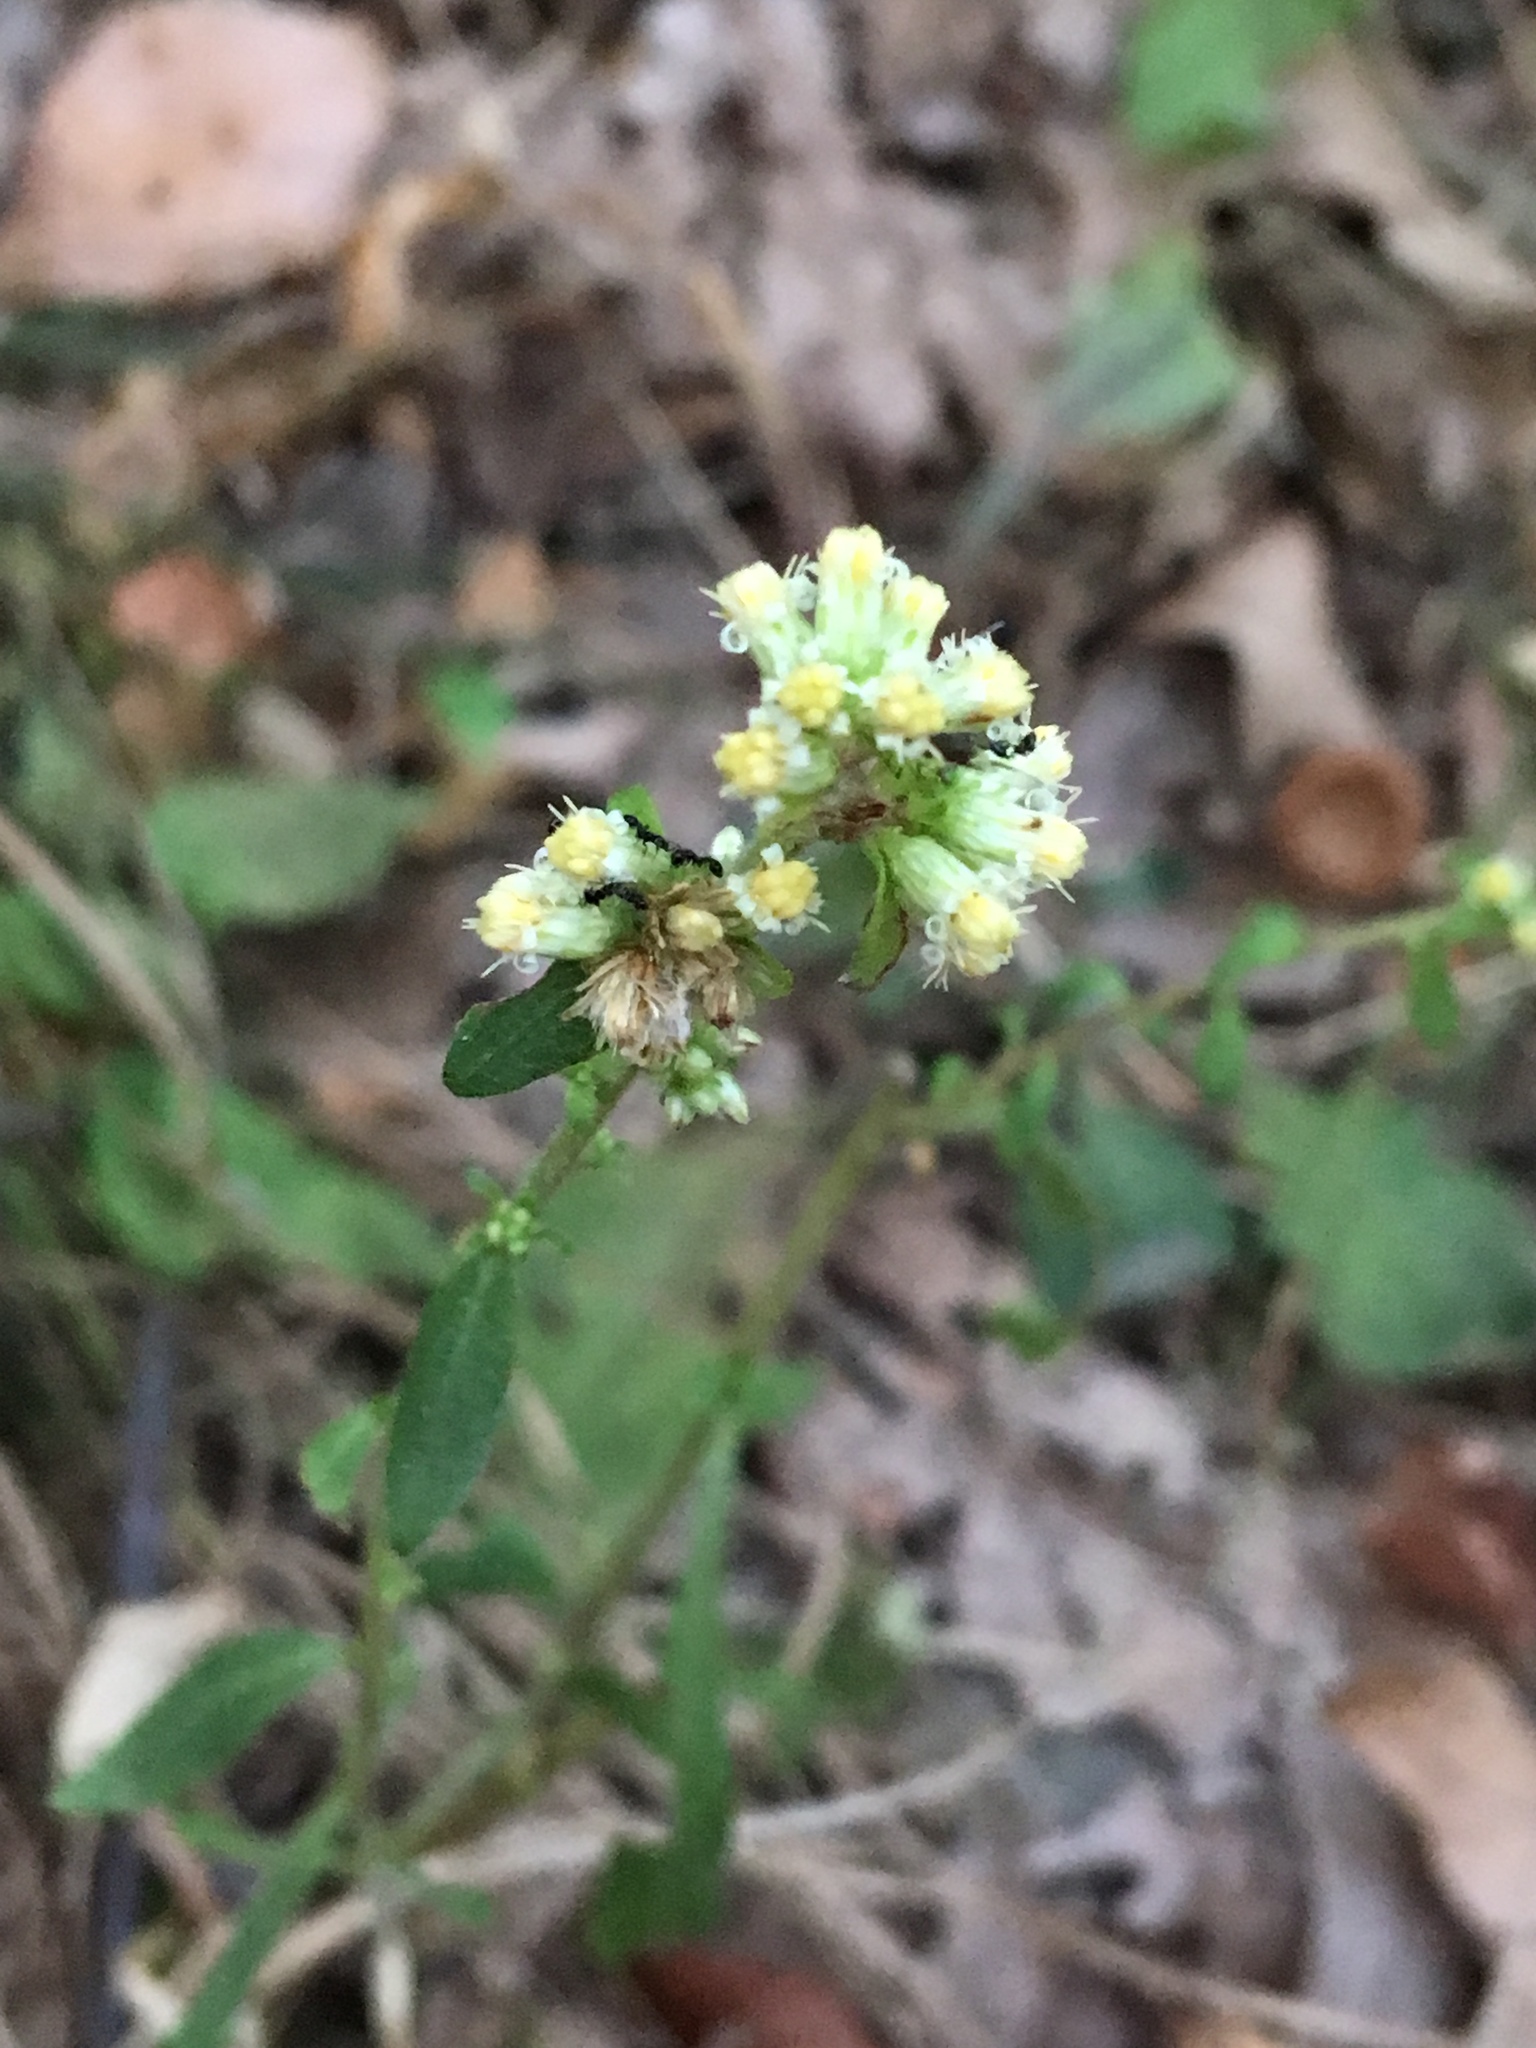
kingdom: Plantae
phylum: Tracheophyta
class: Magnoliopsida
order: Asterales
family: Asteraceae
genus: Solidago
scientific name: Solidago bicolor
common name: Silverrod
